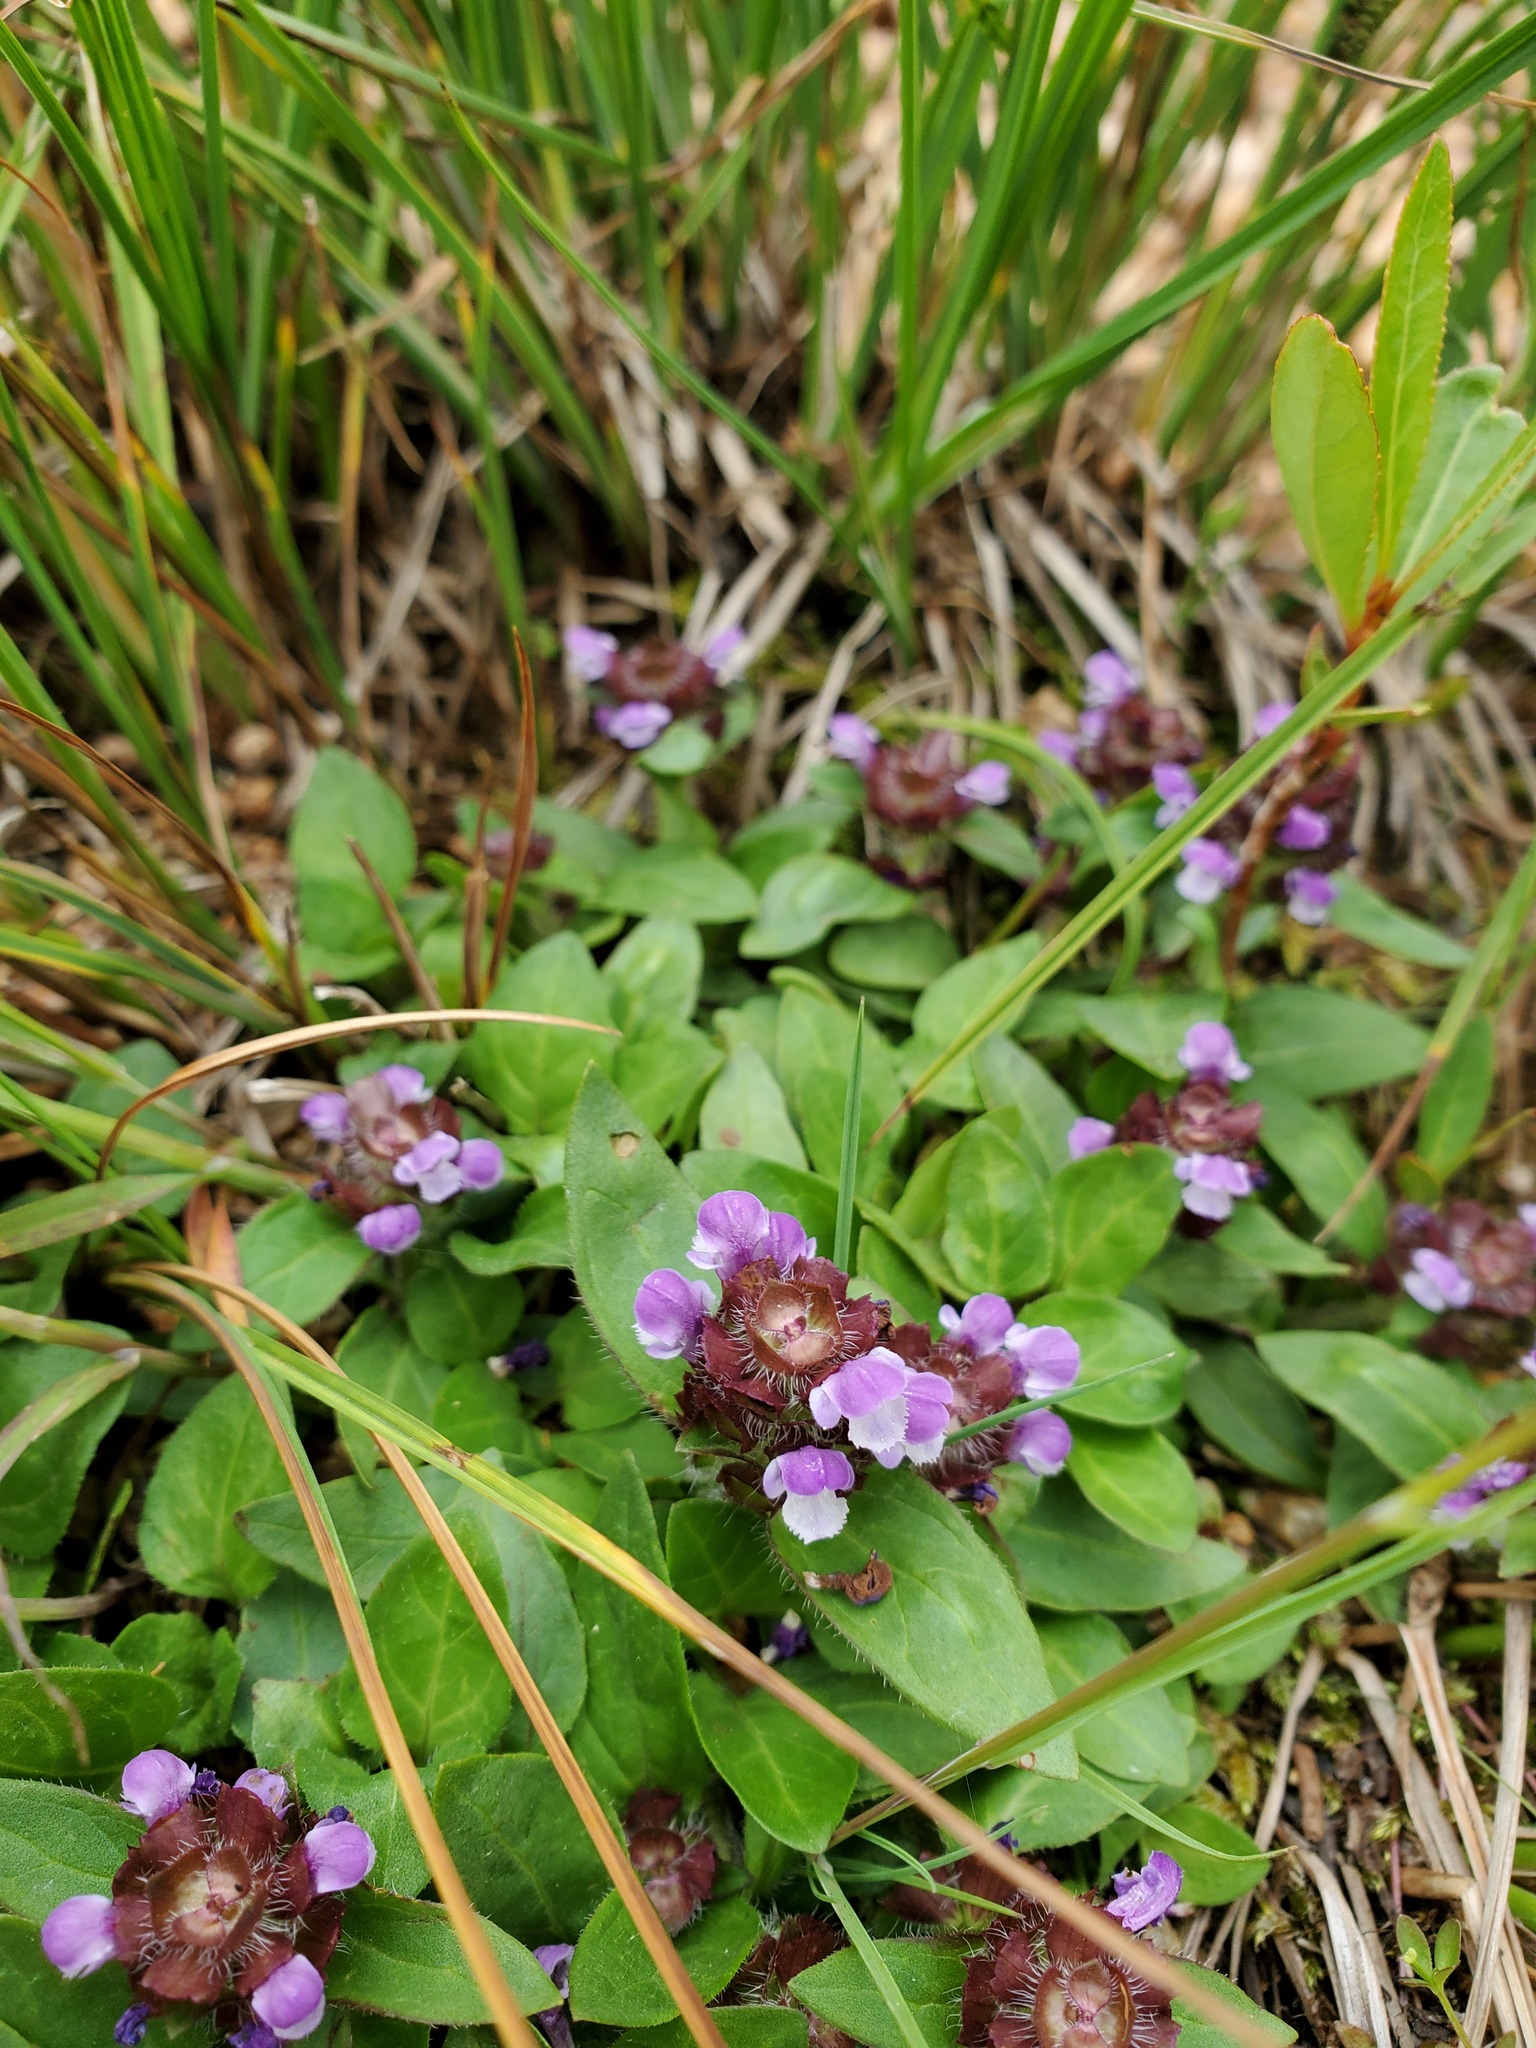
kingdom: Plantae
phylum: Tracheophyta
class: Magnoliopsida
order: Lamiales
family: Lamiaceae
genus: Prunella
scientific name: Prunella vulgaris
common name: Heal-all
